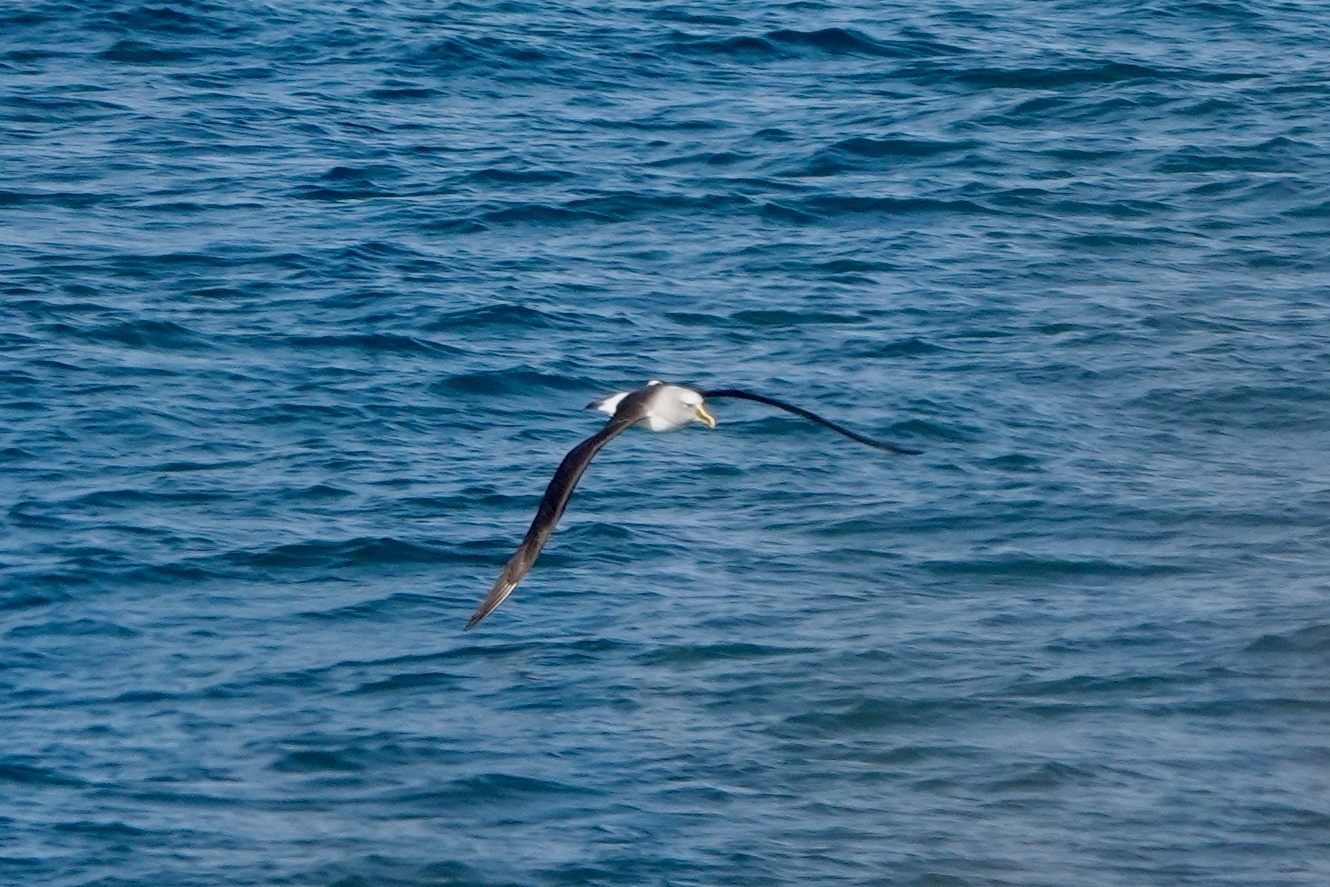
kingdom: Animalia
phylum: Chordata
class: Aves
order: Procellariiformes
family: Diomedeidae
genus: Thalassarche
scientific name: Thalassarche bulleri
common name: Buller's albatross
